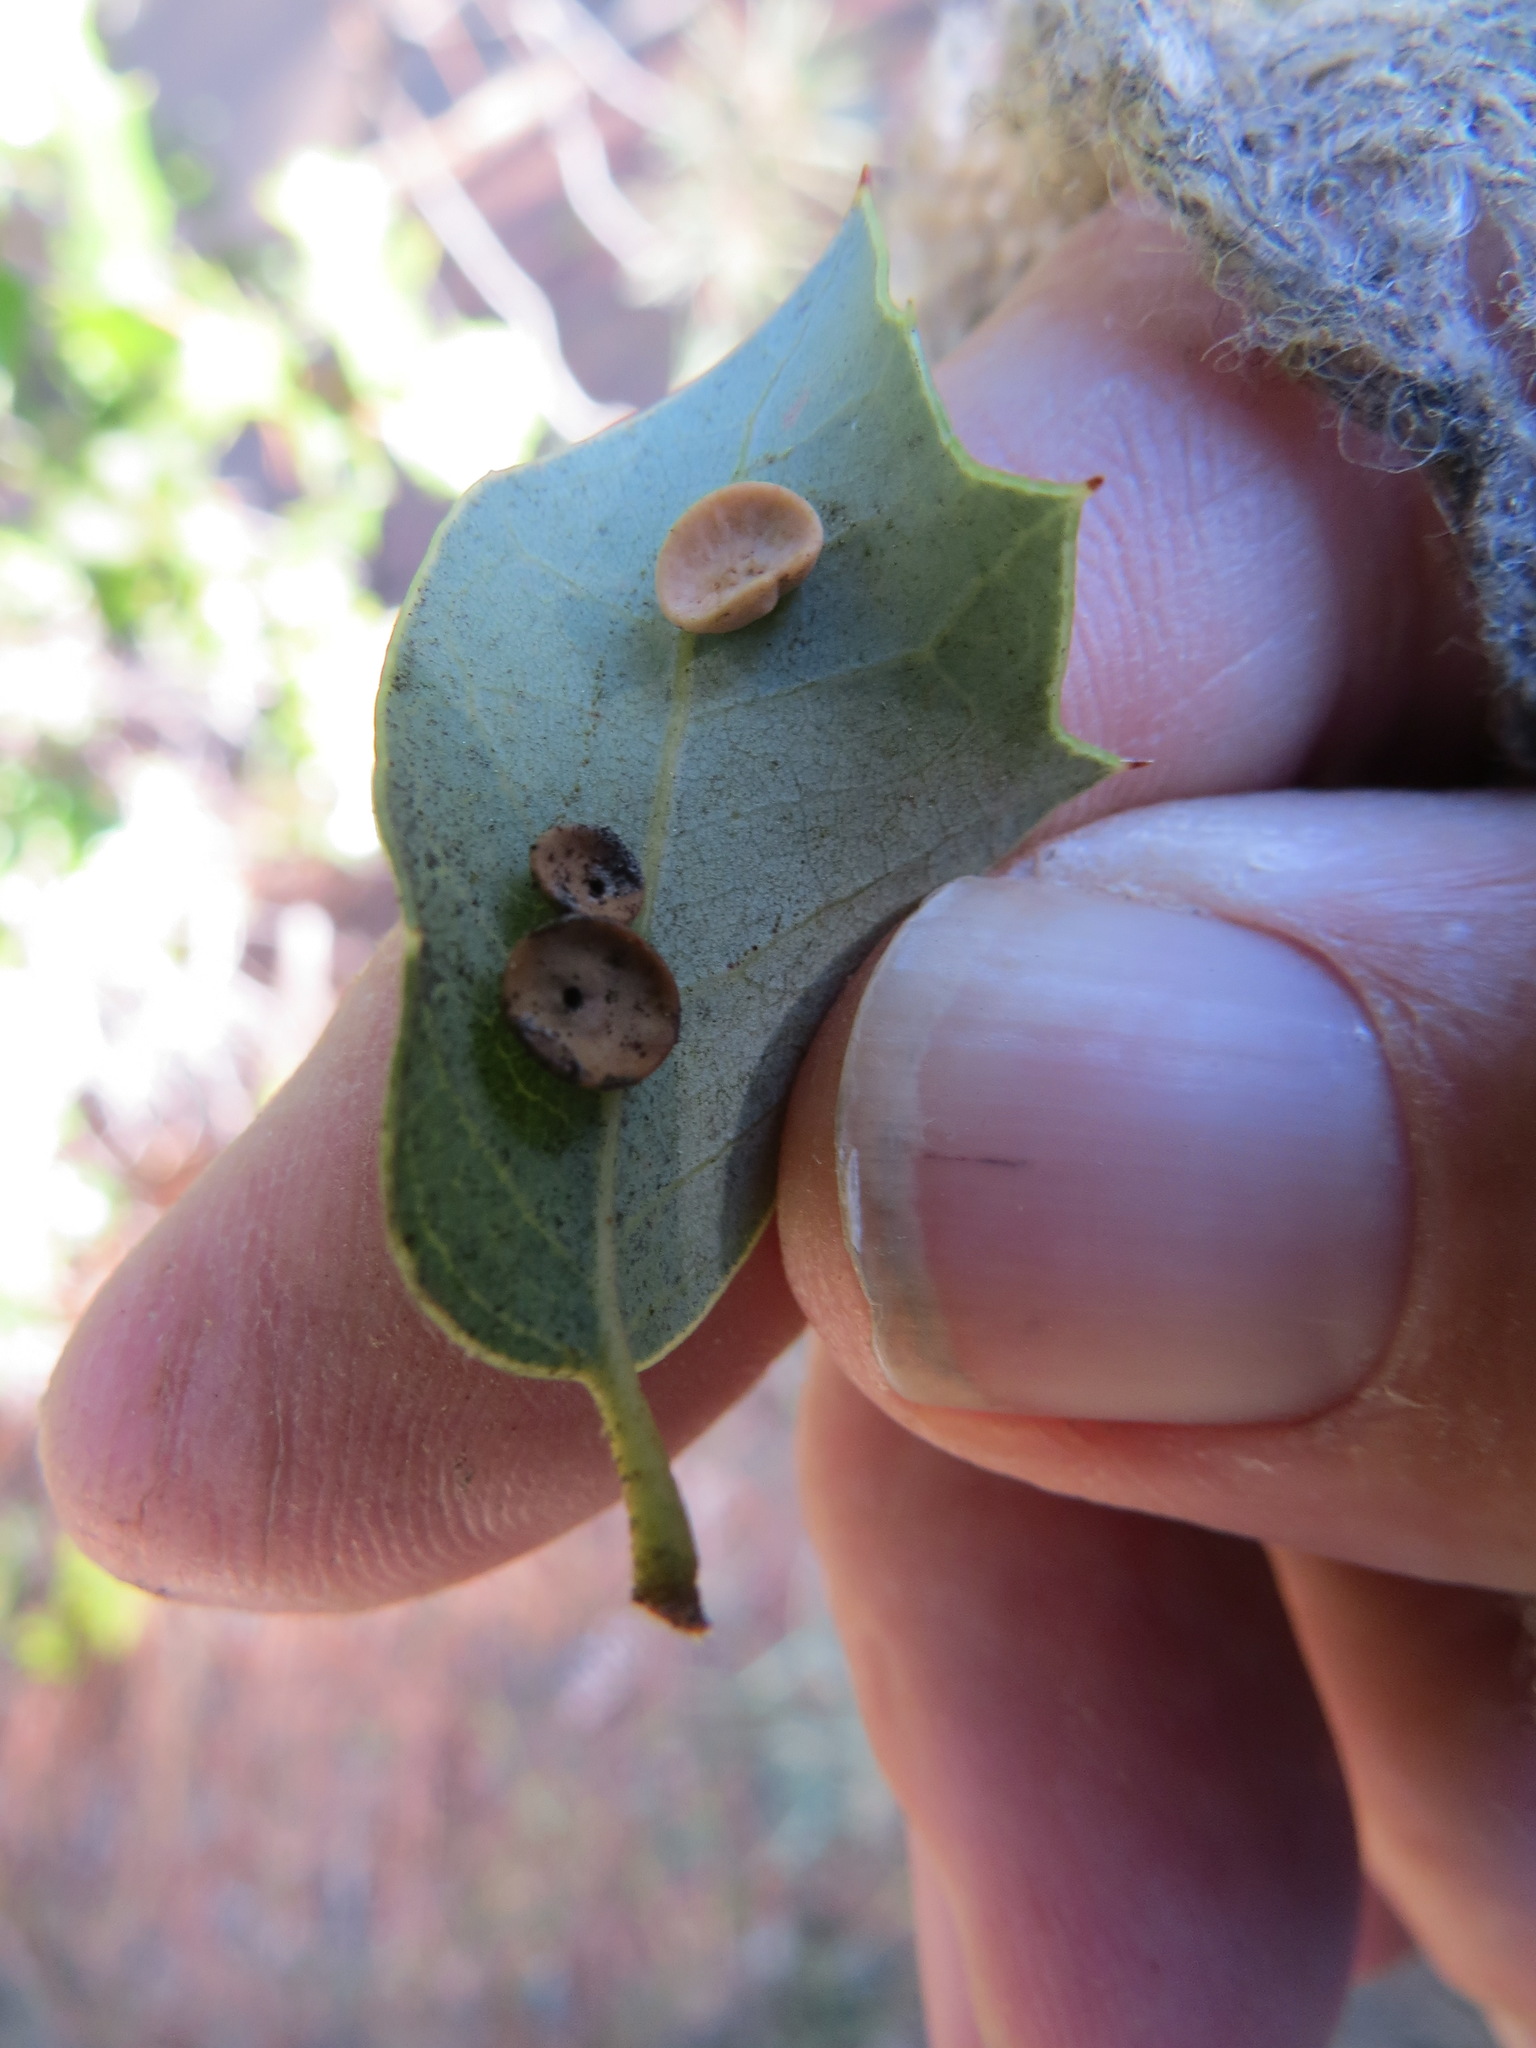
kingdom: Animalia
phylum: Arthropoda
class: Insecta
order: Hymenoptera
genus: Paracraspis
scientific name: Paracraspis
